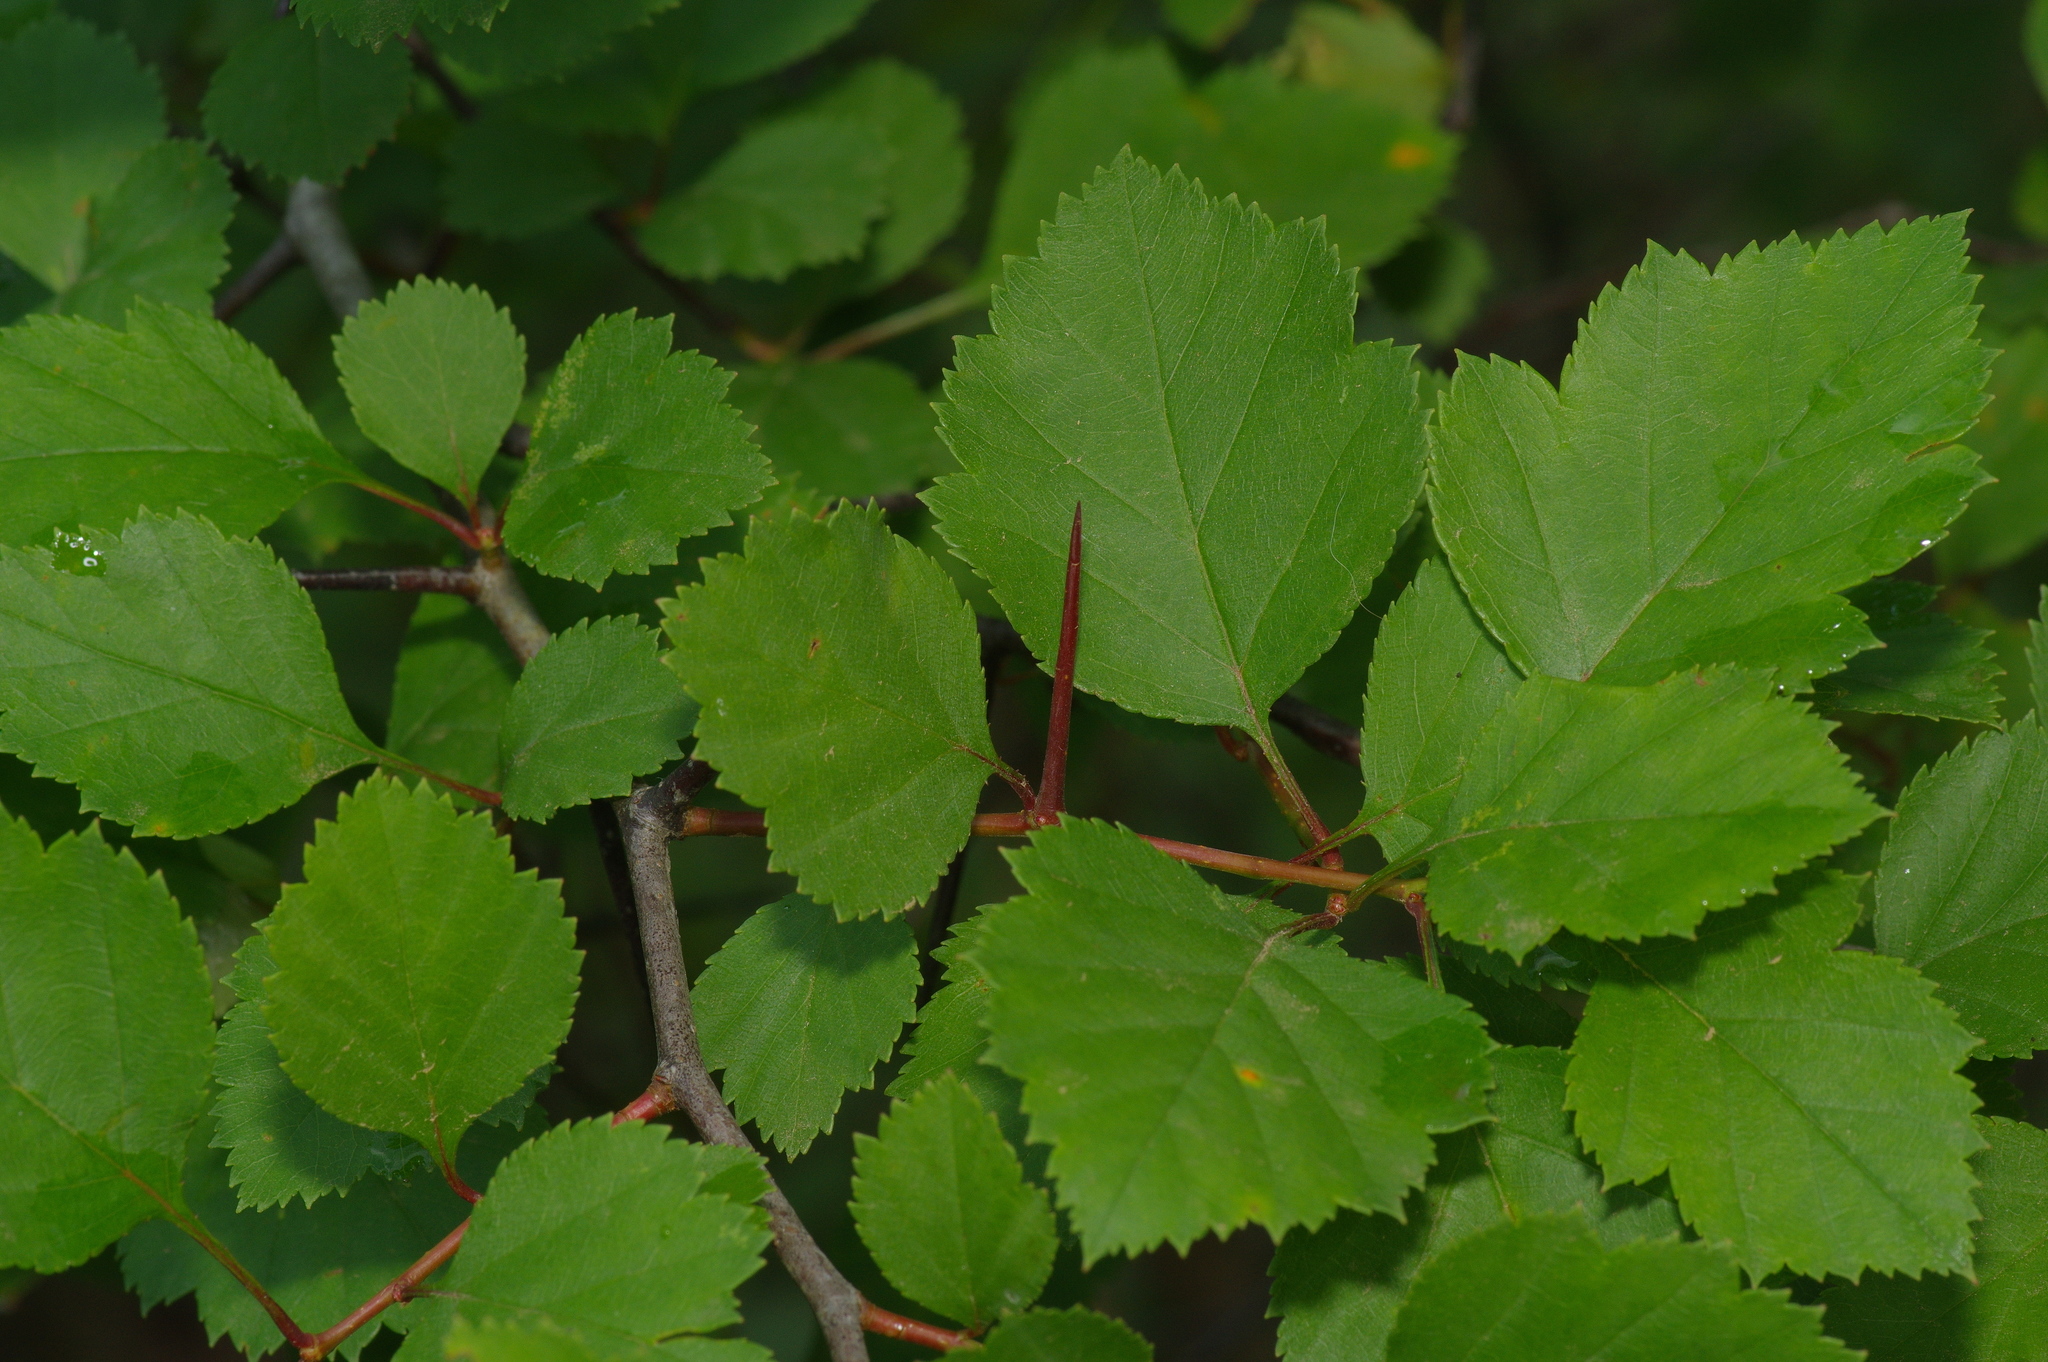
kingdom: Plantae
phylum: Tracheophyta
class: Magnoliopsida
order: Rosales
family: Rosaceae
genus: Crataegus
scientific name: Crataegus viridis
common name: Southernthorn
